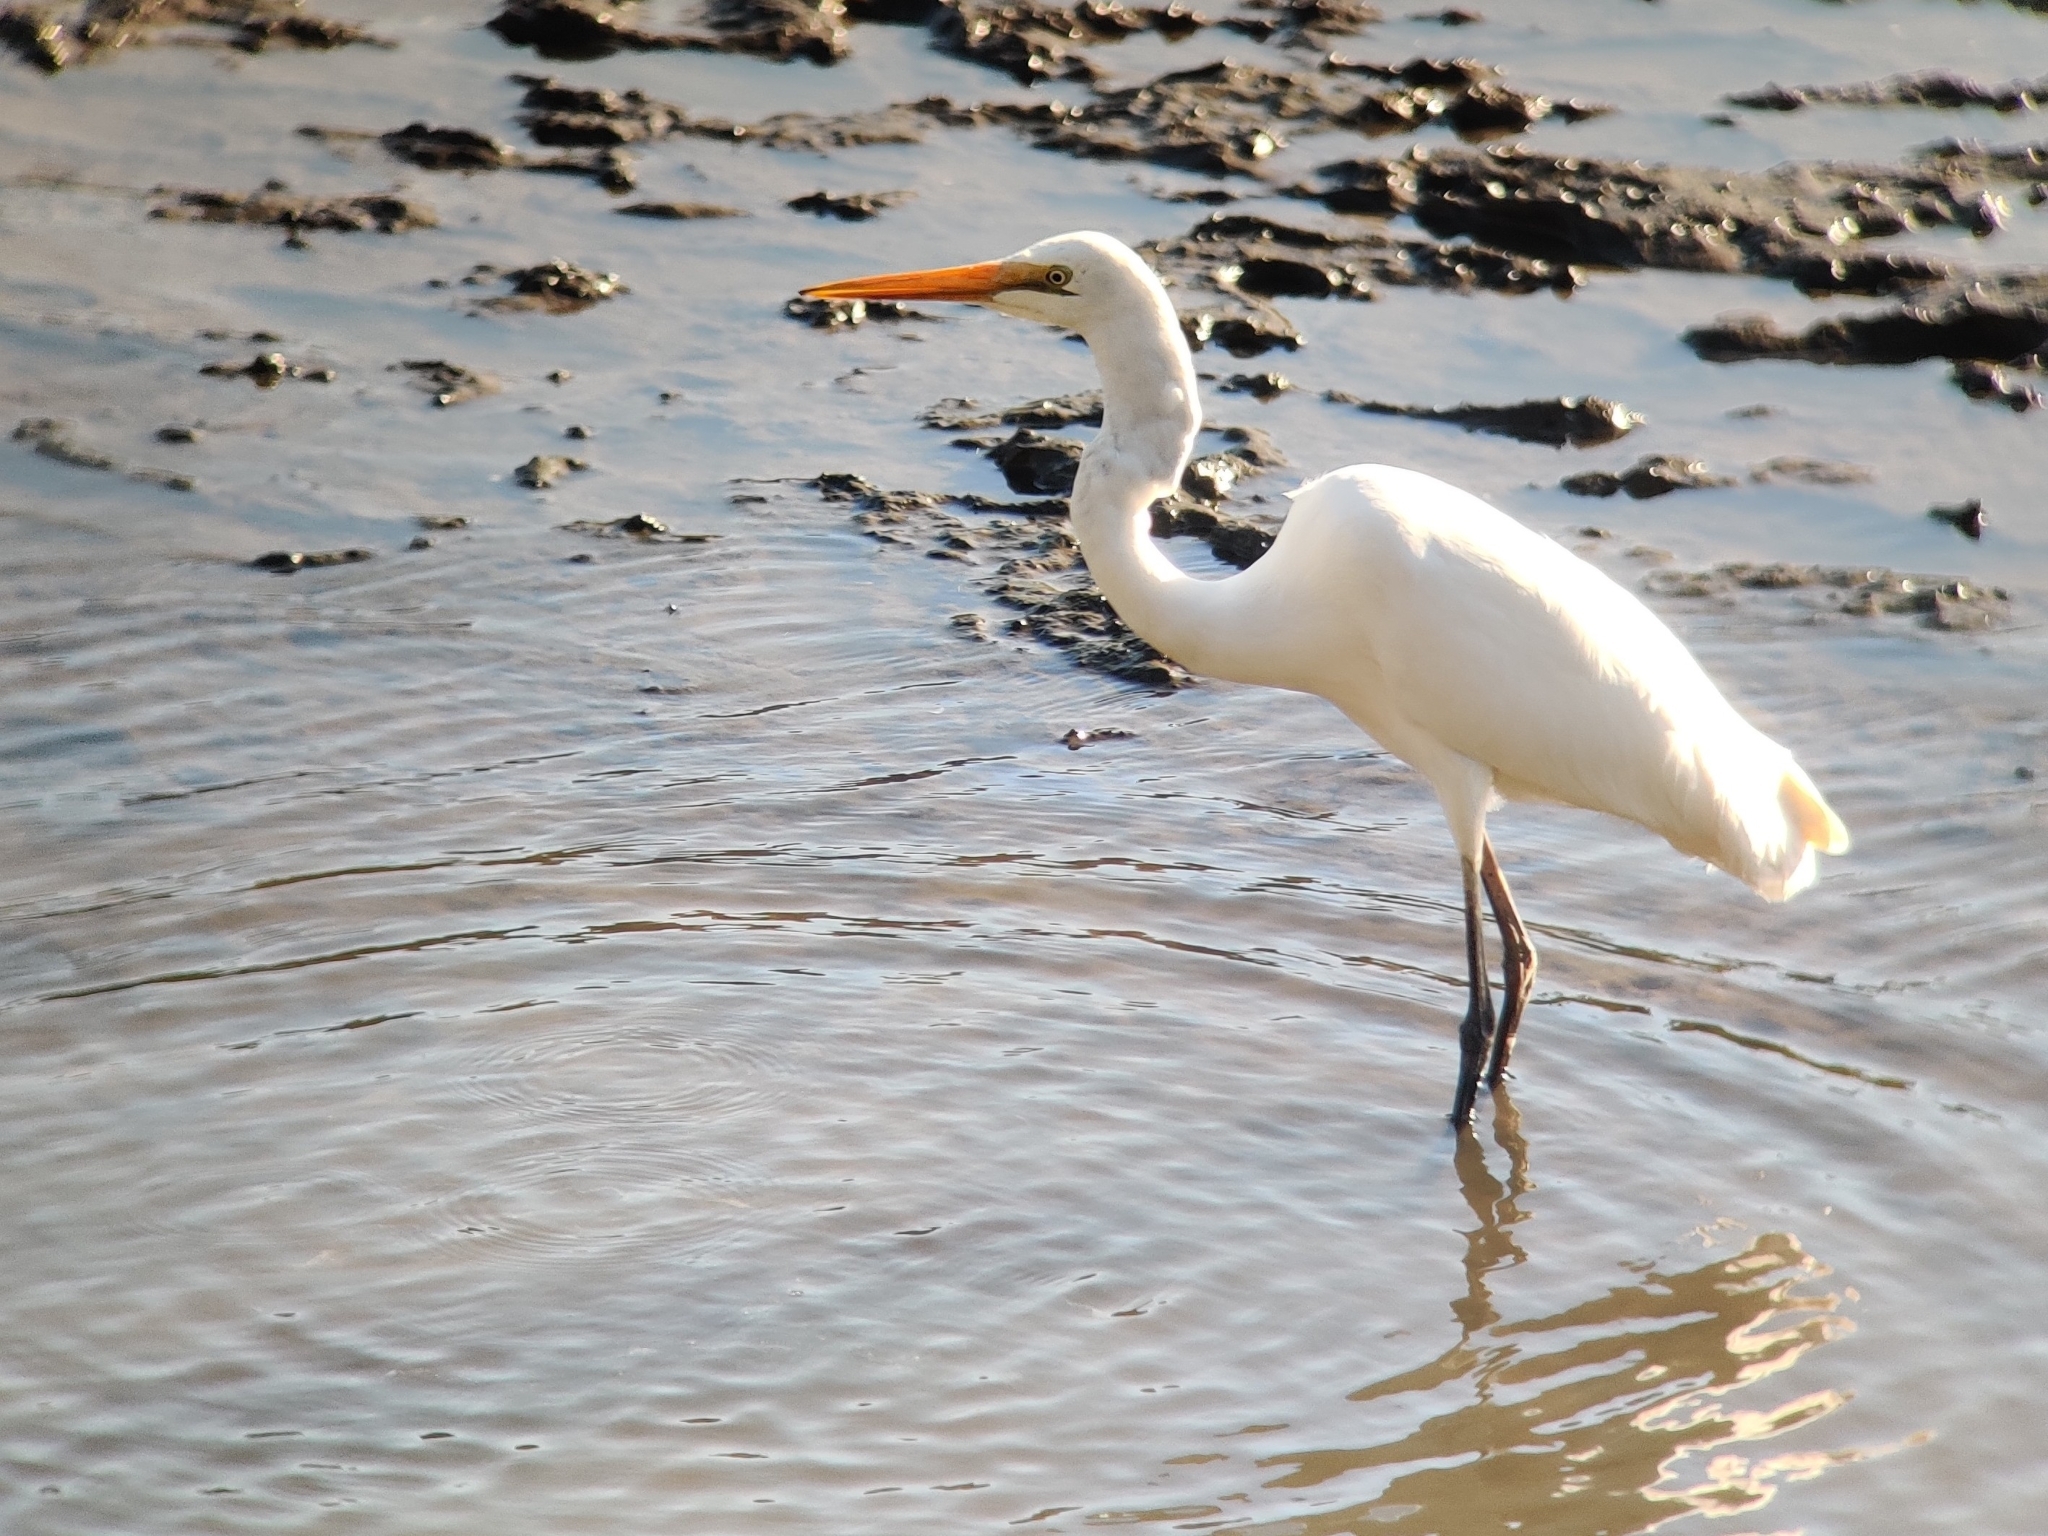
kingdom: Animalia
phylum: Chordata
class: Aves
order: Pelecaniformes
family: Ardeidae
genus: Ardea
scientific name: Ardea alba
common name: Great egret
